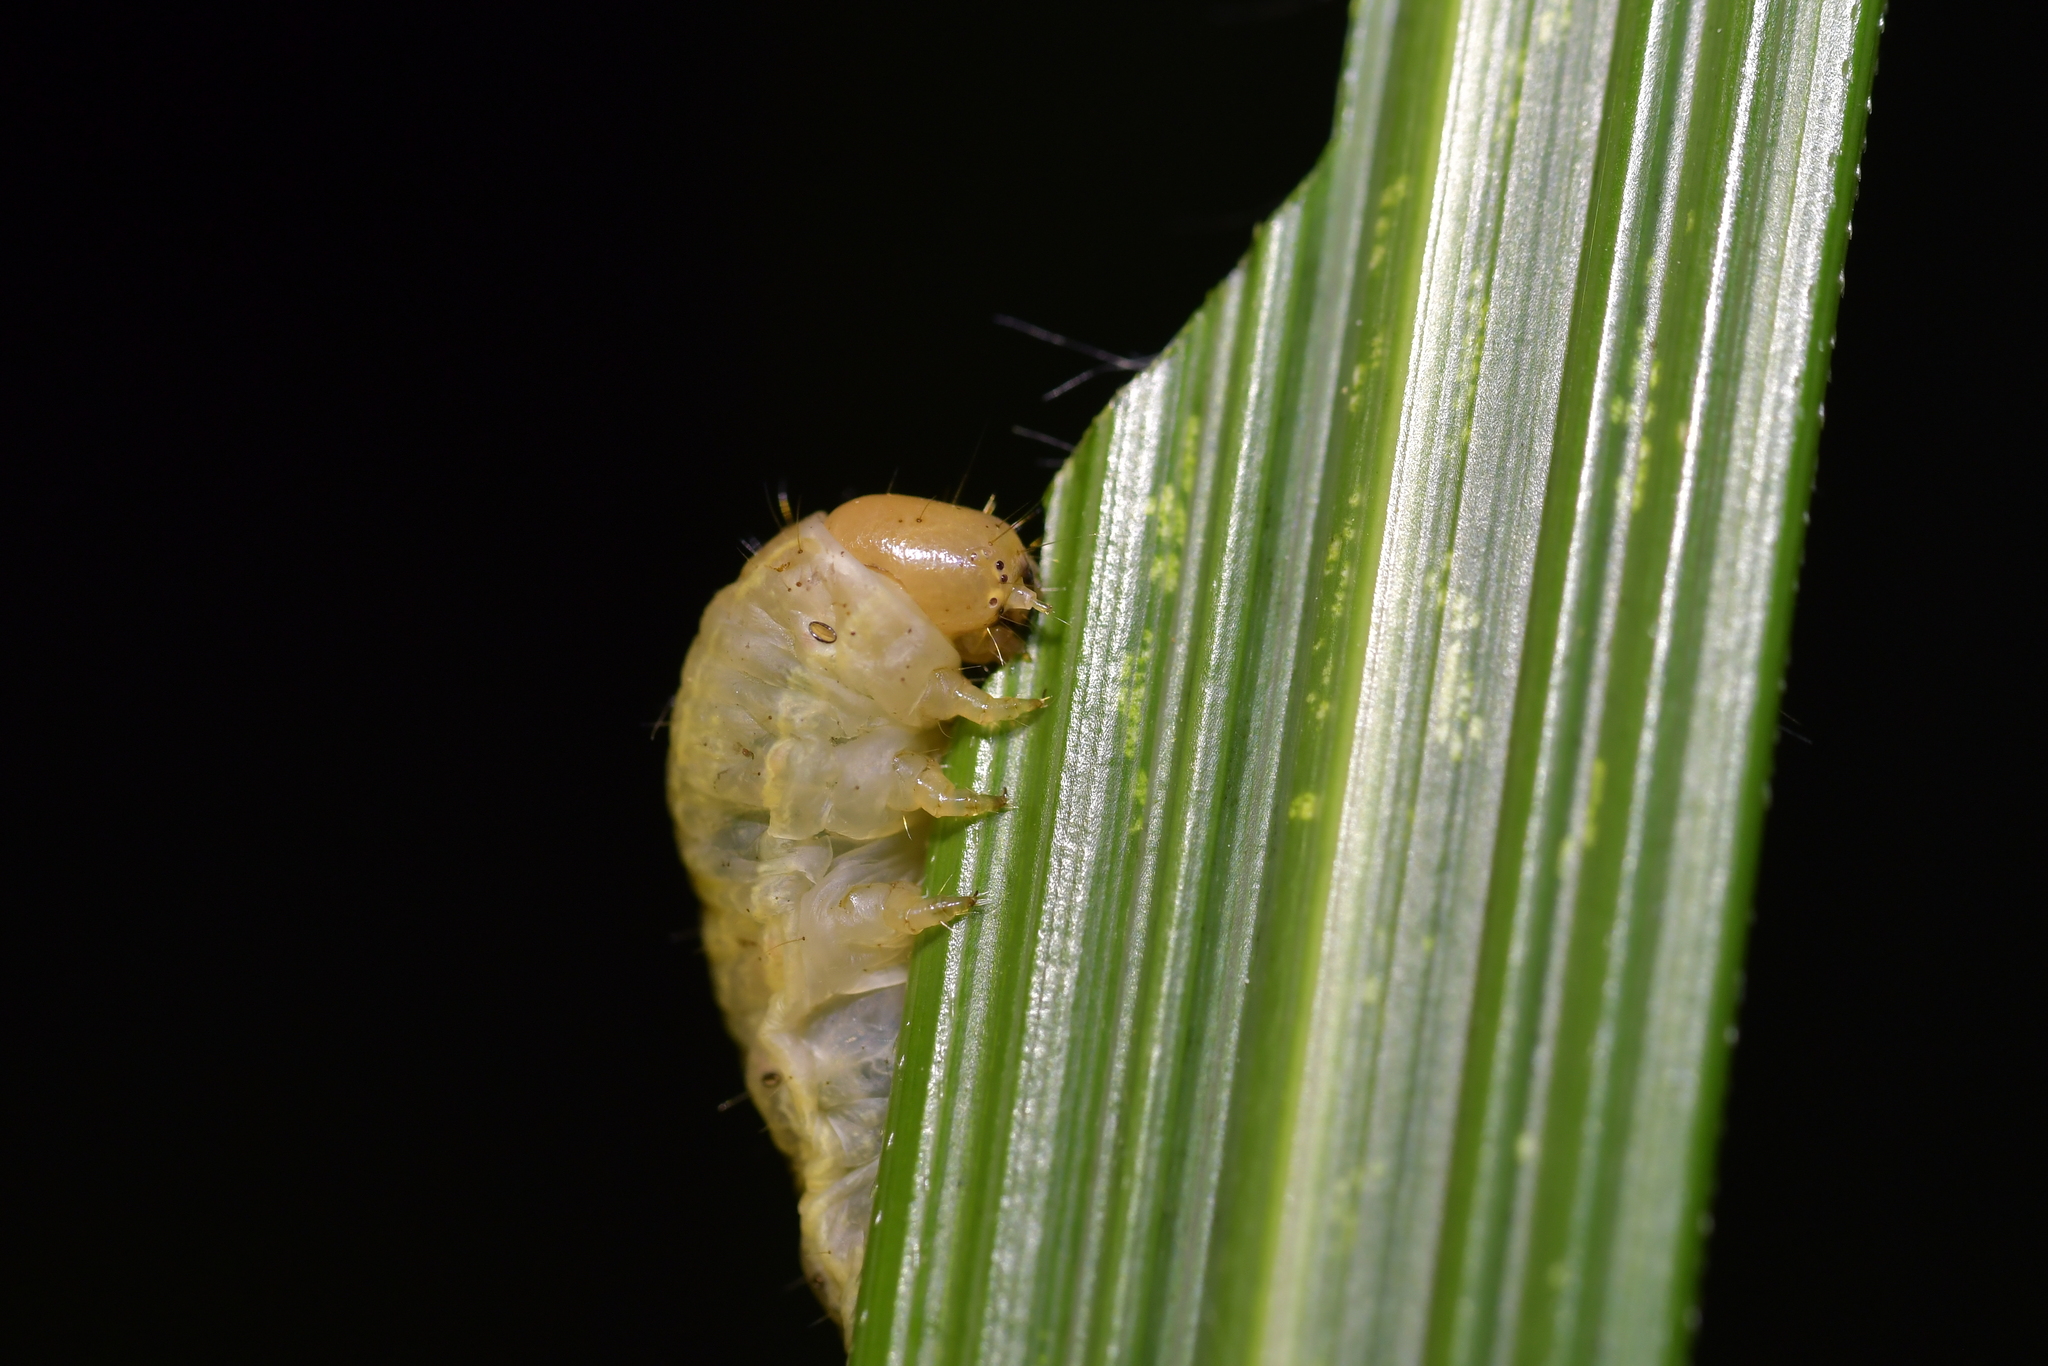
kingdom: Animalia
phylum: Arthropoda
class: Insecta
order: Lepidoptera
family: Noctuidae
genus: Ichneutica
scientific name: Ichneutica
